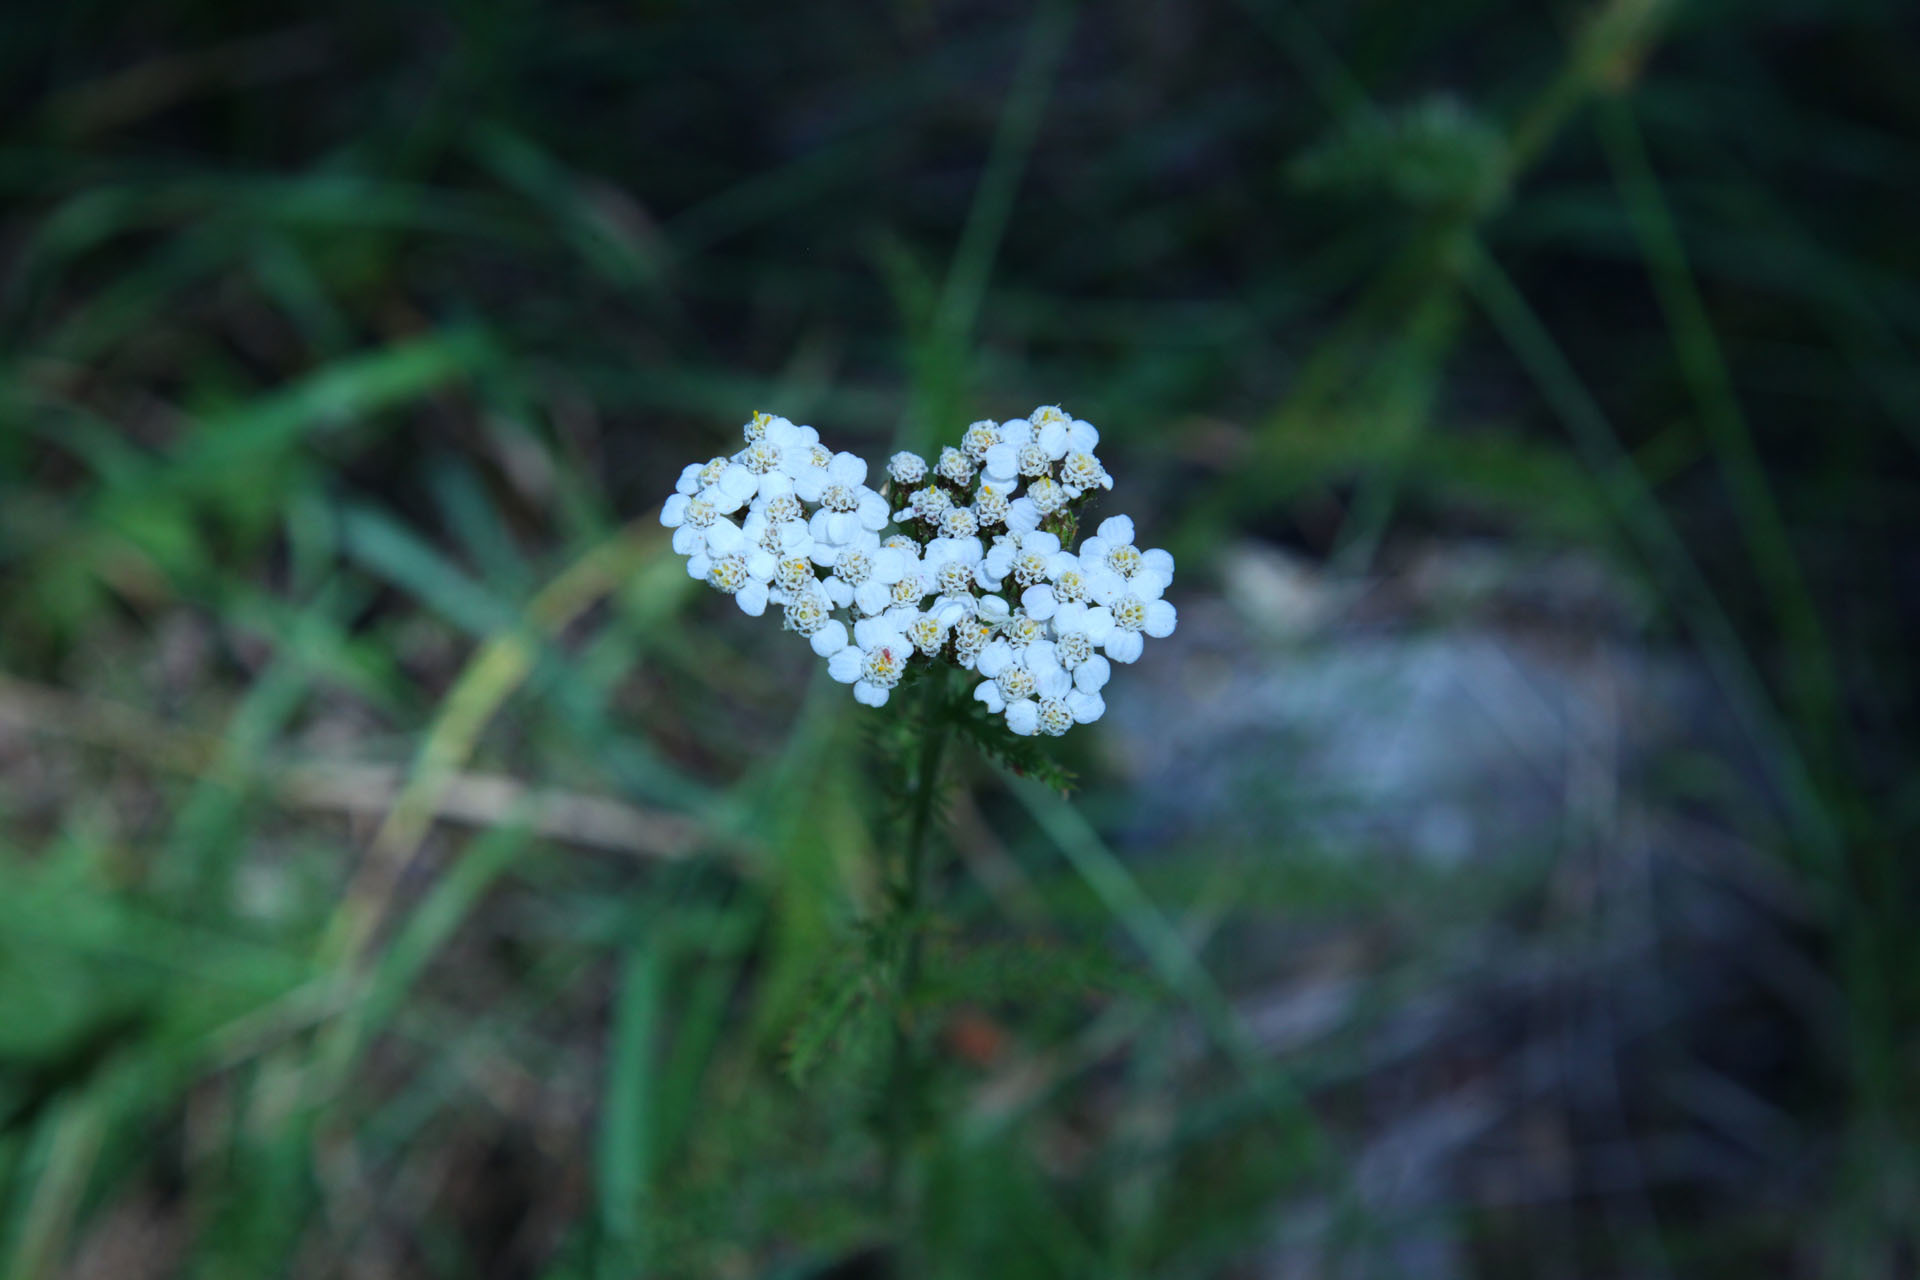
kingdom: Plantae
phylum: Tracheophyta
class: Magnoliopsida
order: Asterales
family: Asteraceae
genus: Achillea
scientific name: Achillea millefolium
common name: Yarrow
